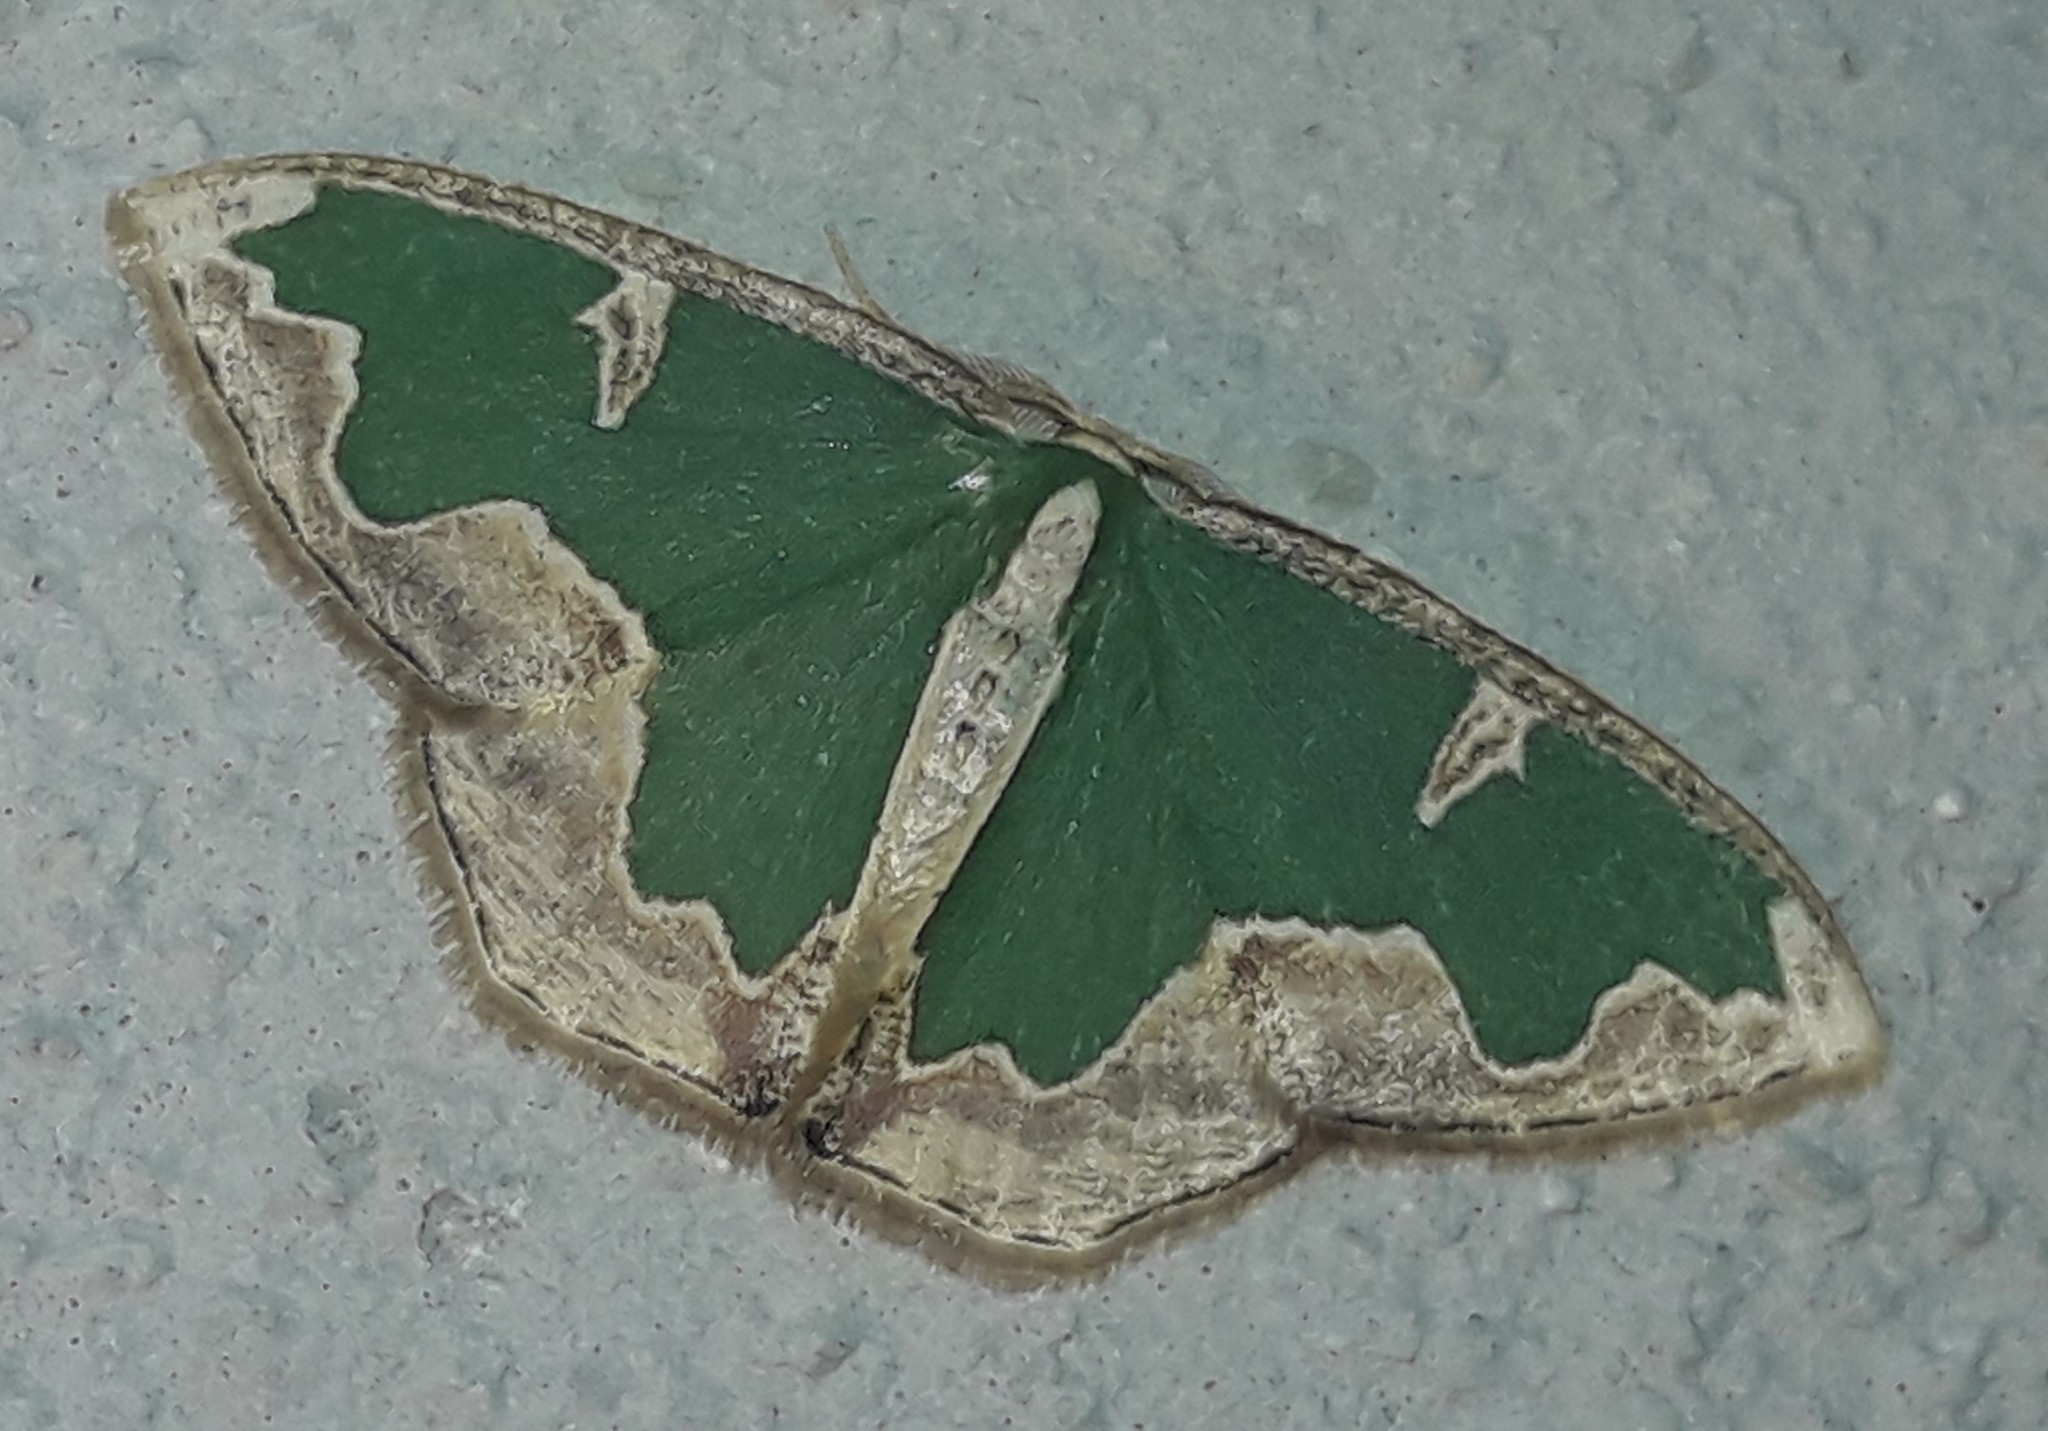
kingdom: Animalia
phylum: Arthropoda
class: Insecta
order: Lepidoptera
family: Geometridae
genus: Oospila
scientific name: Oospila venezuelata
